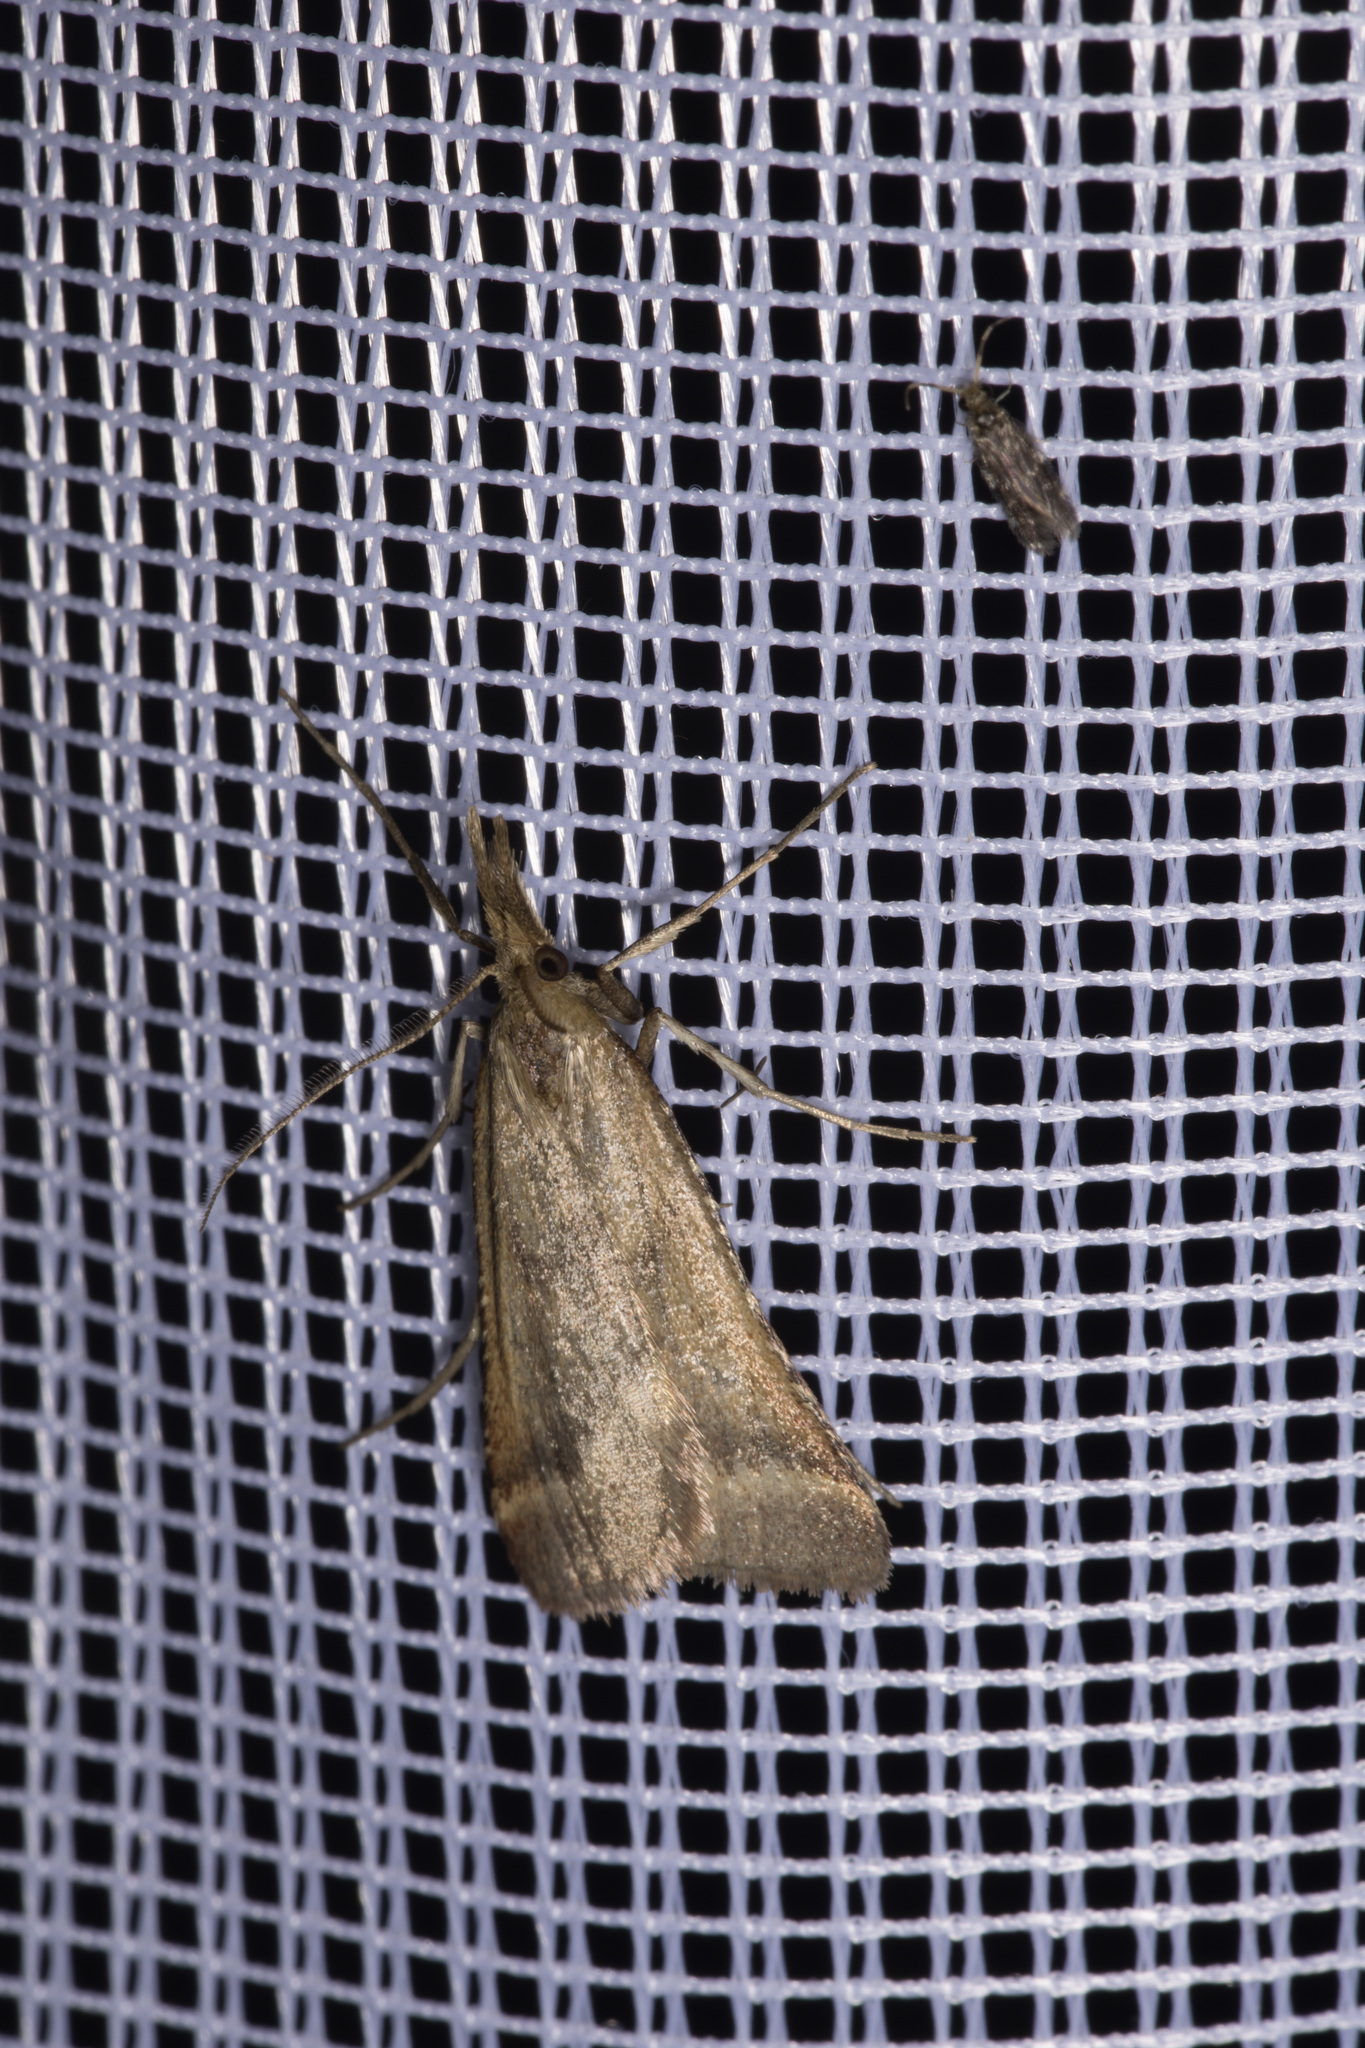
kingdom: Animalia
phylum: Arthropoda
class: Insecta
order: Lepidoptera
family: Pyralidae
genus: Synaphe
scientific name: Synaphe punctalis
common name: Long-legged tabby
